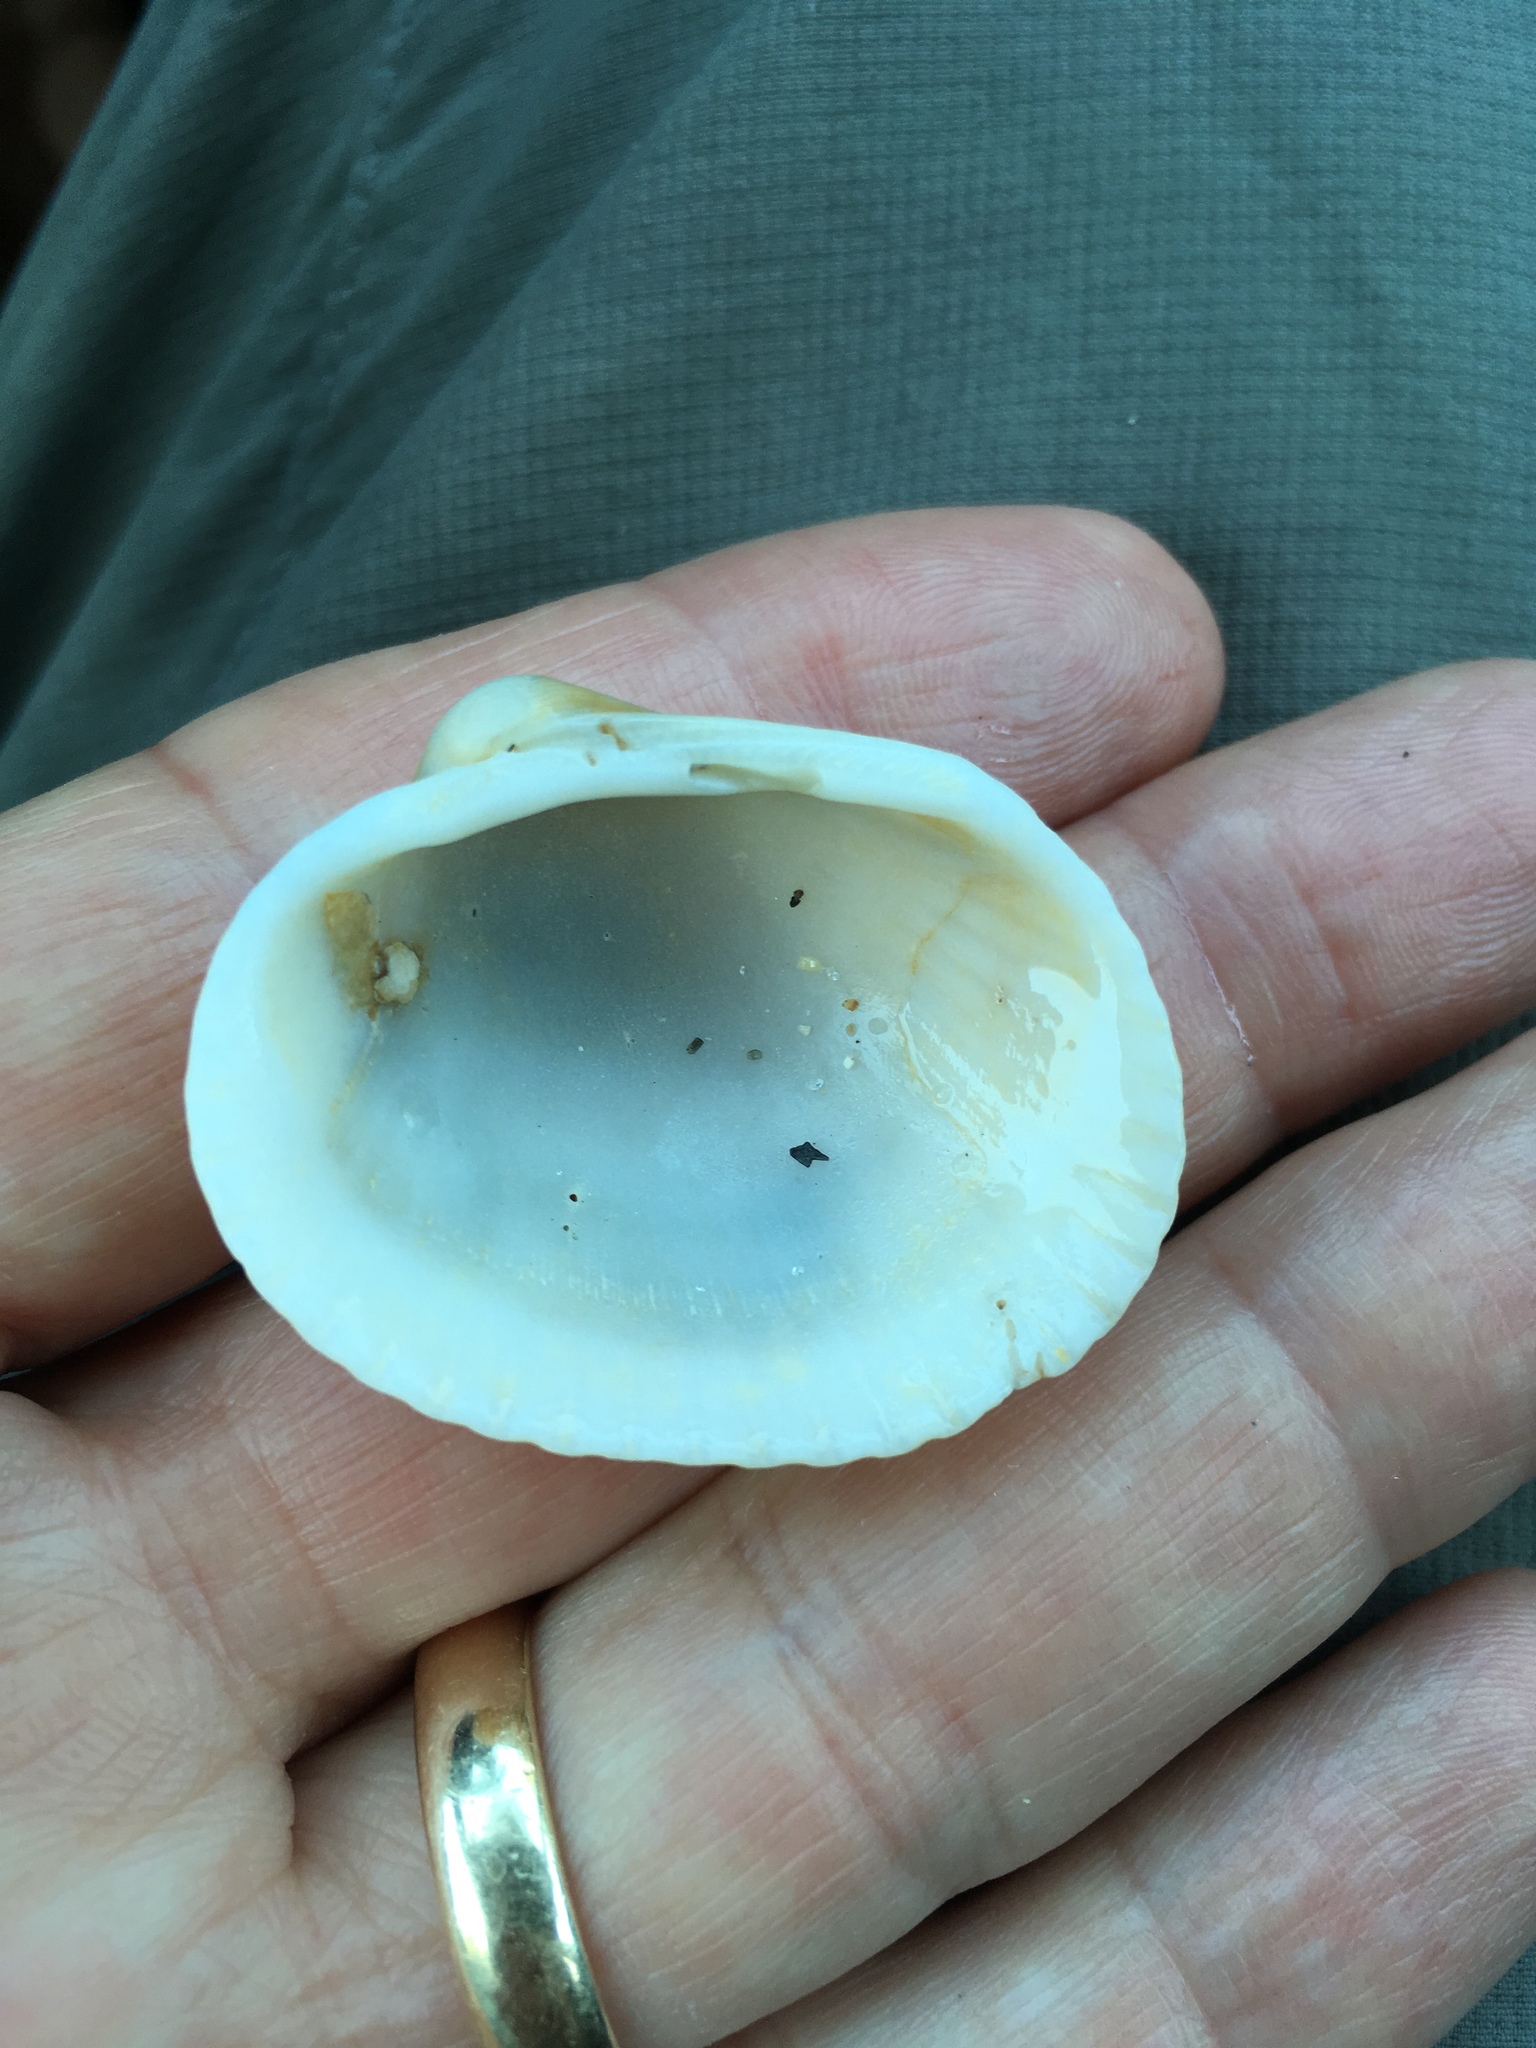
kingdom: Animalia
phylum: Mollusca
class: Bivalvia
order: Arcida
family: Arcidae
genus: Lunarca
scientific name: Lunarca ovalis
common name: Blood ark
